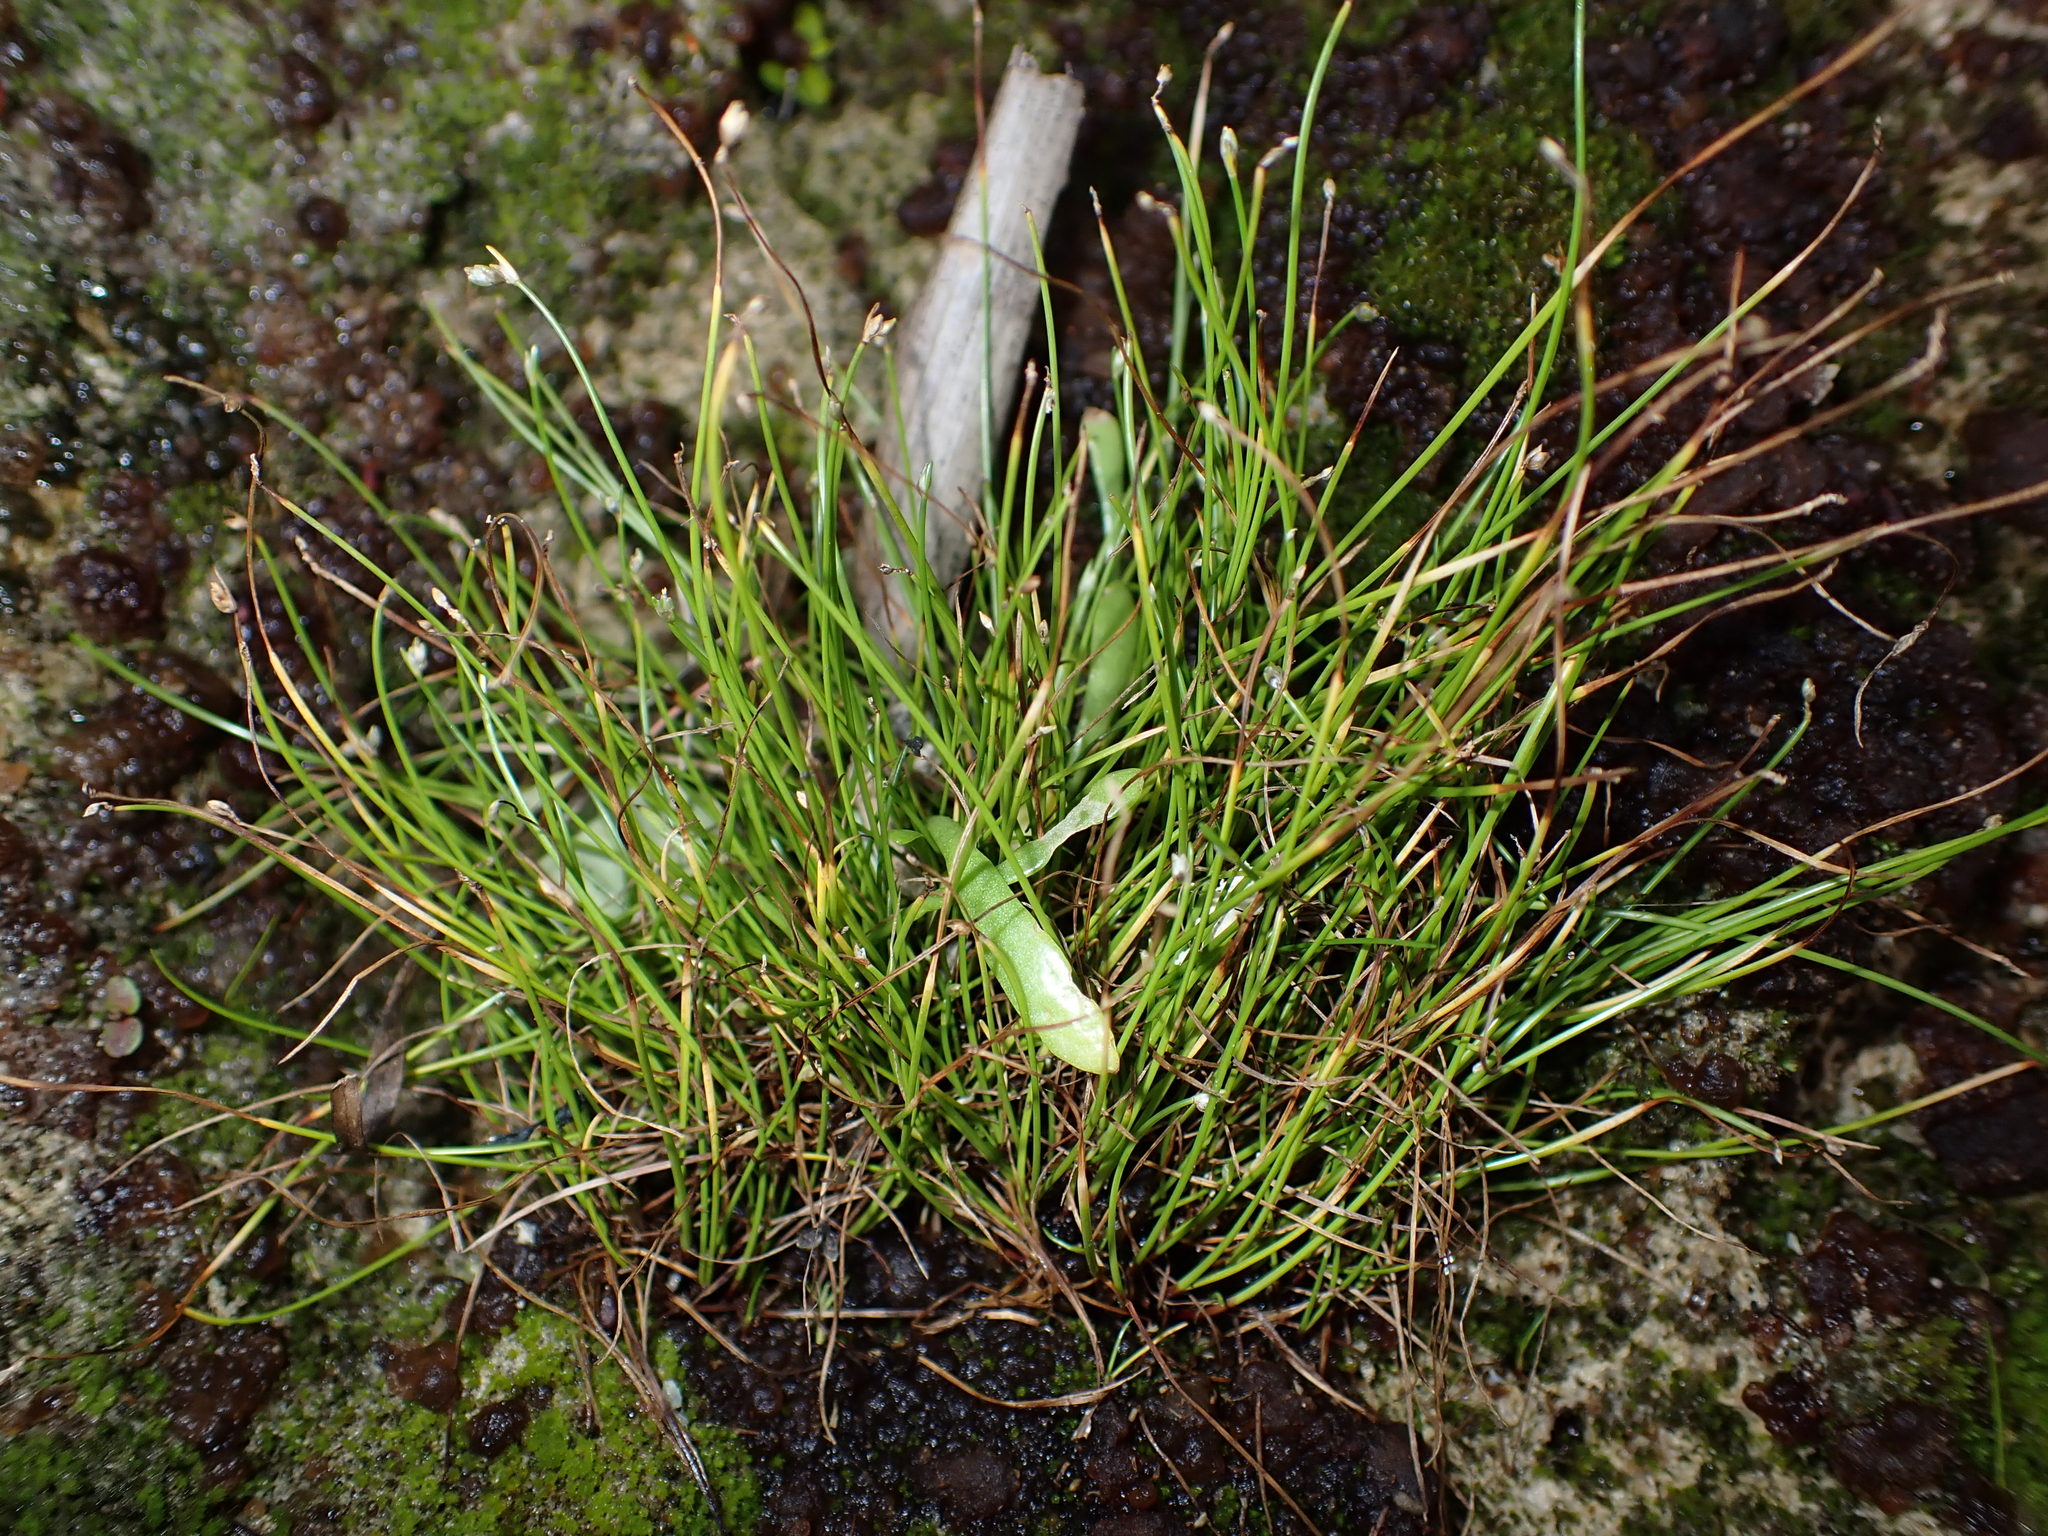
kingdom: Plantae
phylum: Tracheophyta
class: Liliopsida
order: Poales
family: Cyperaceae
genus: Isolepis
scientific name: Isolepis cernua
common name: Slender club-rush
